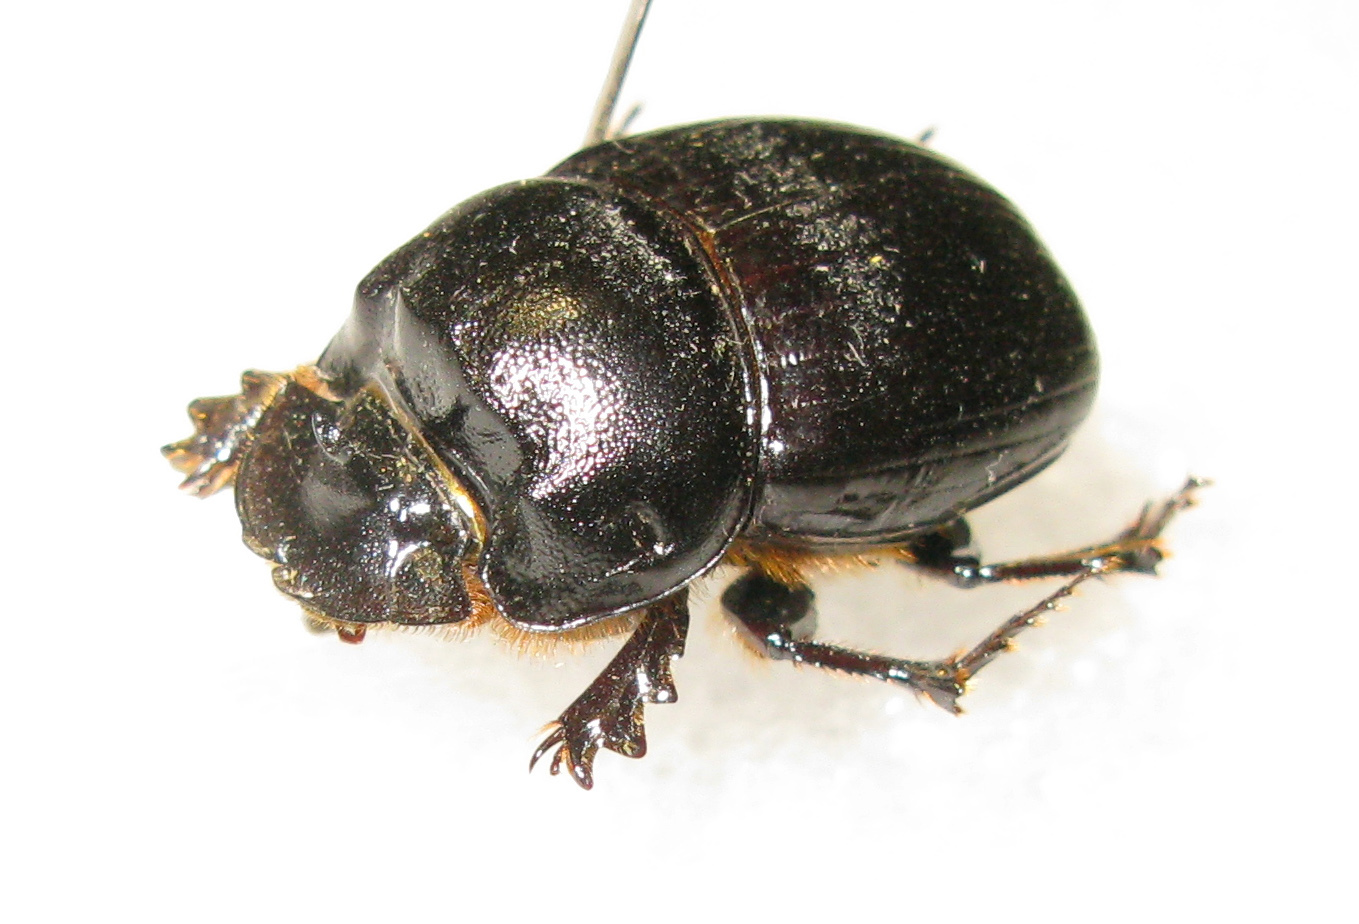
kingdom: Animalia
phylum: Arthropoda
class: Insecta
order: Coleoptera
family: Scarabaeidae
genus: Copris
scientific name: Copris lunaris
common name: Horned dung beetle
